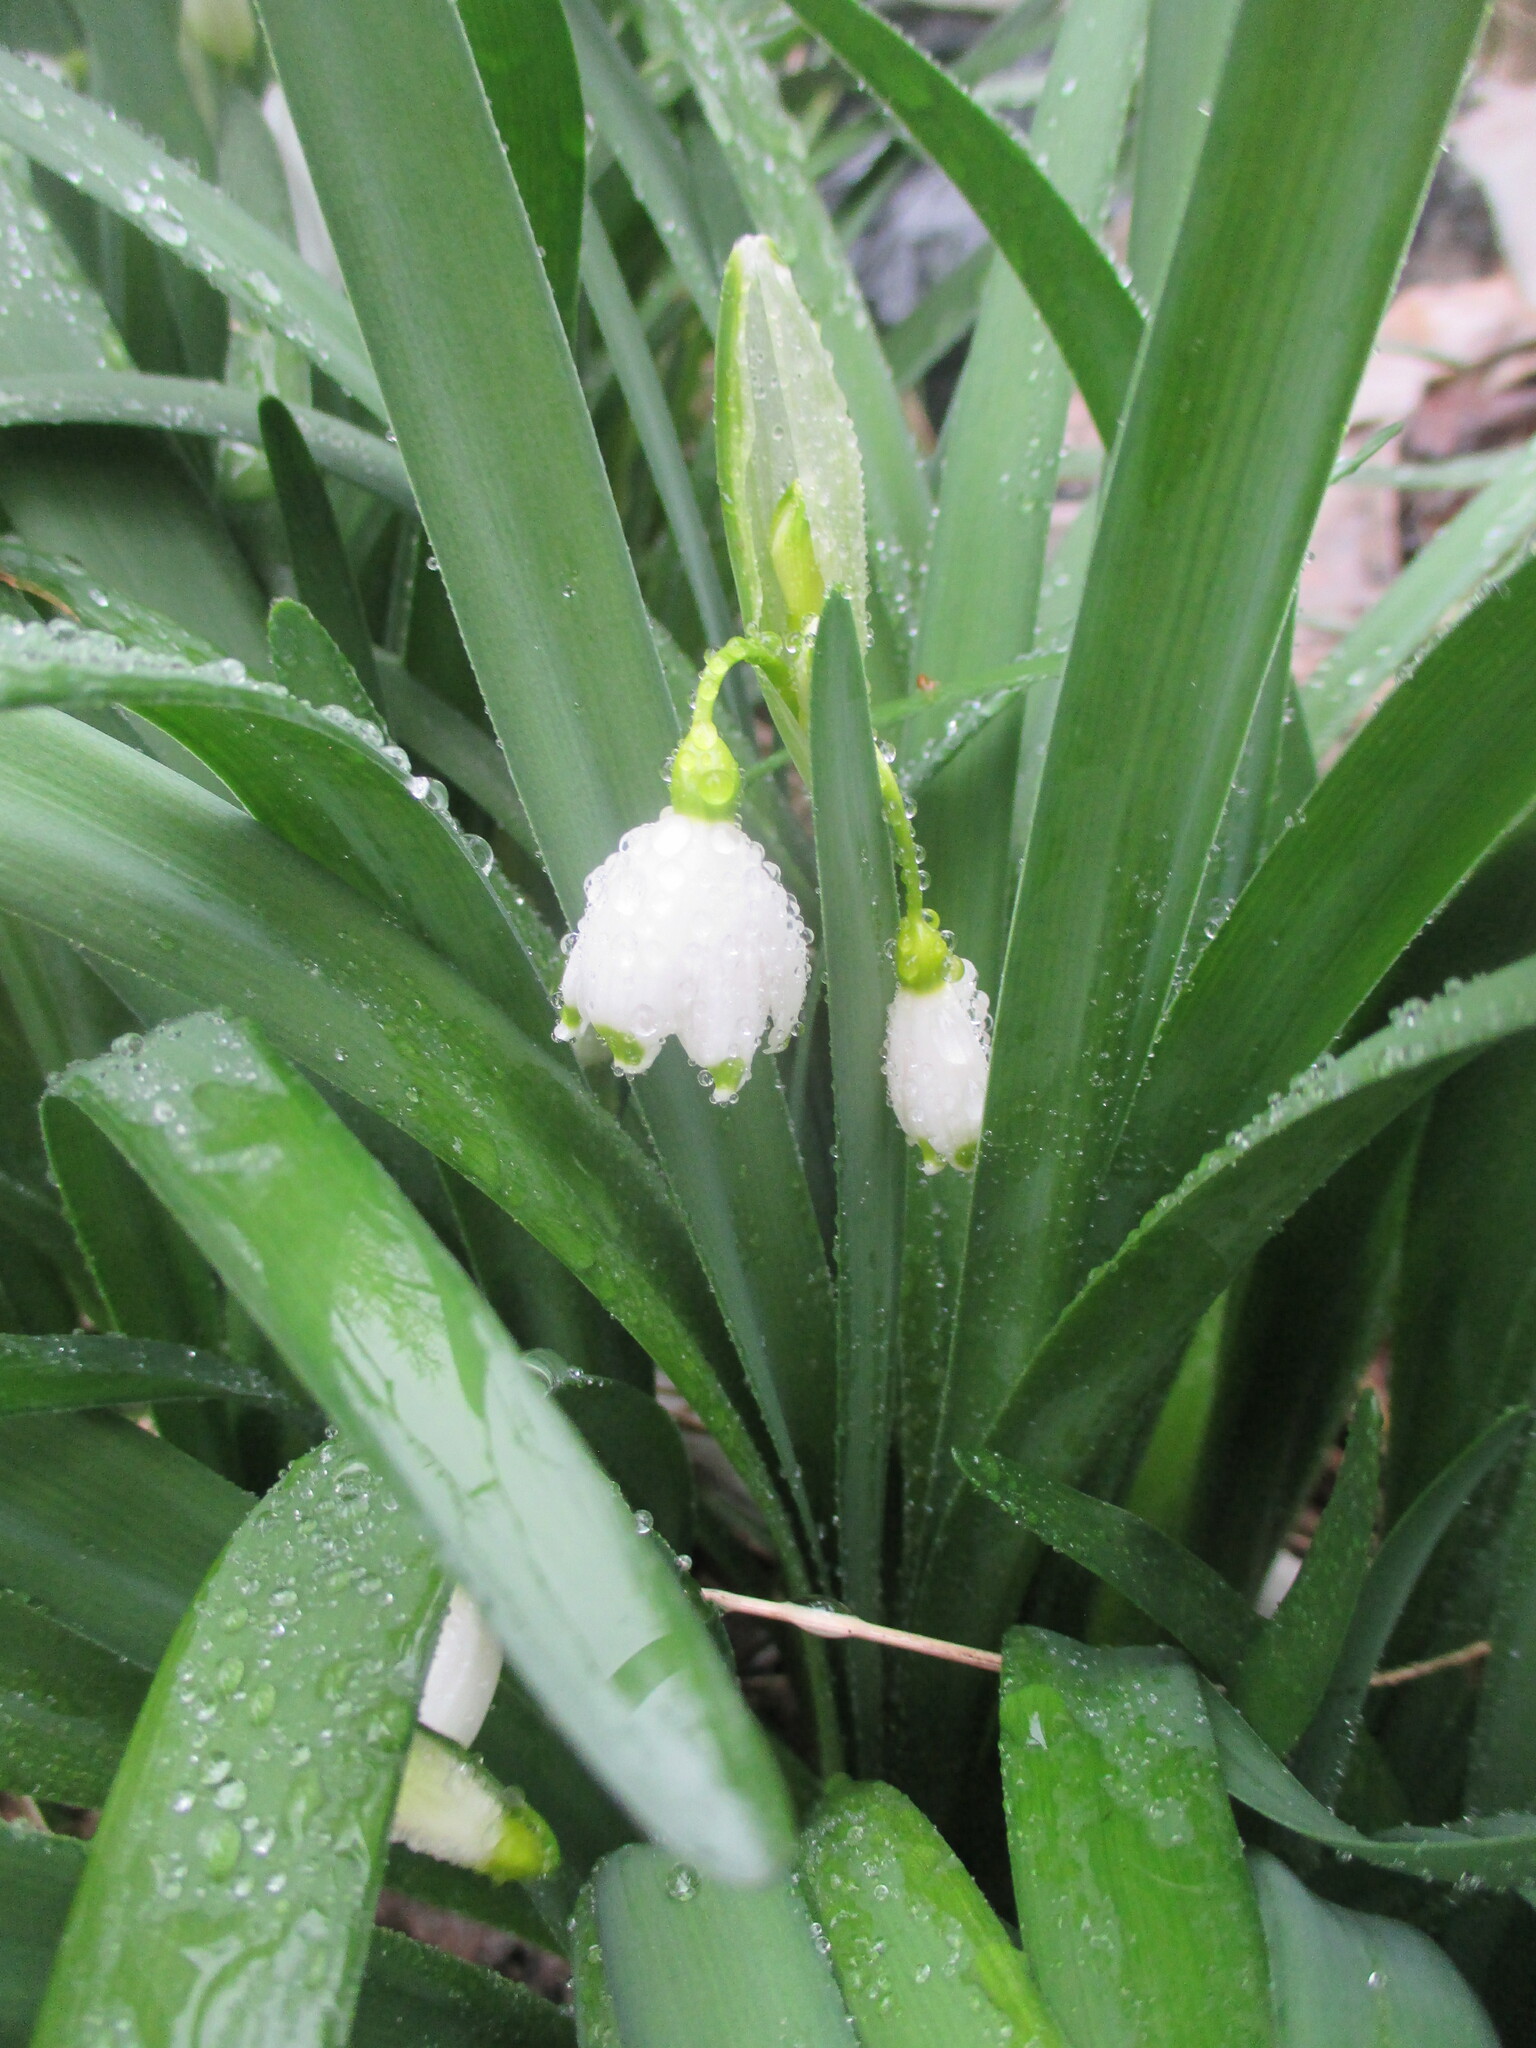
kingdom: Plantae
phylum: Tracheophyta
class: Liliopsida
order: Asparagales
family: Amaryllidaceae
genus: Leucojum
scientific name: Leucojum aestivum
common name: Summer snowflake
